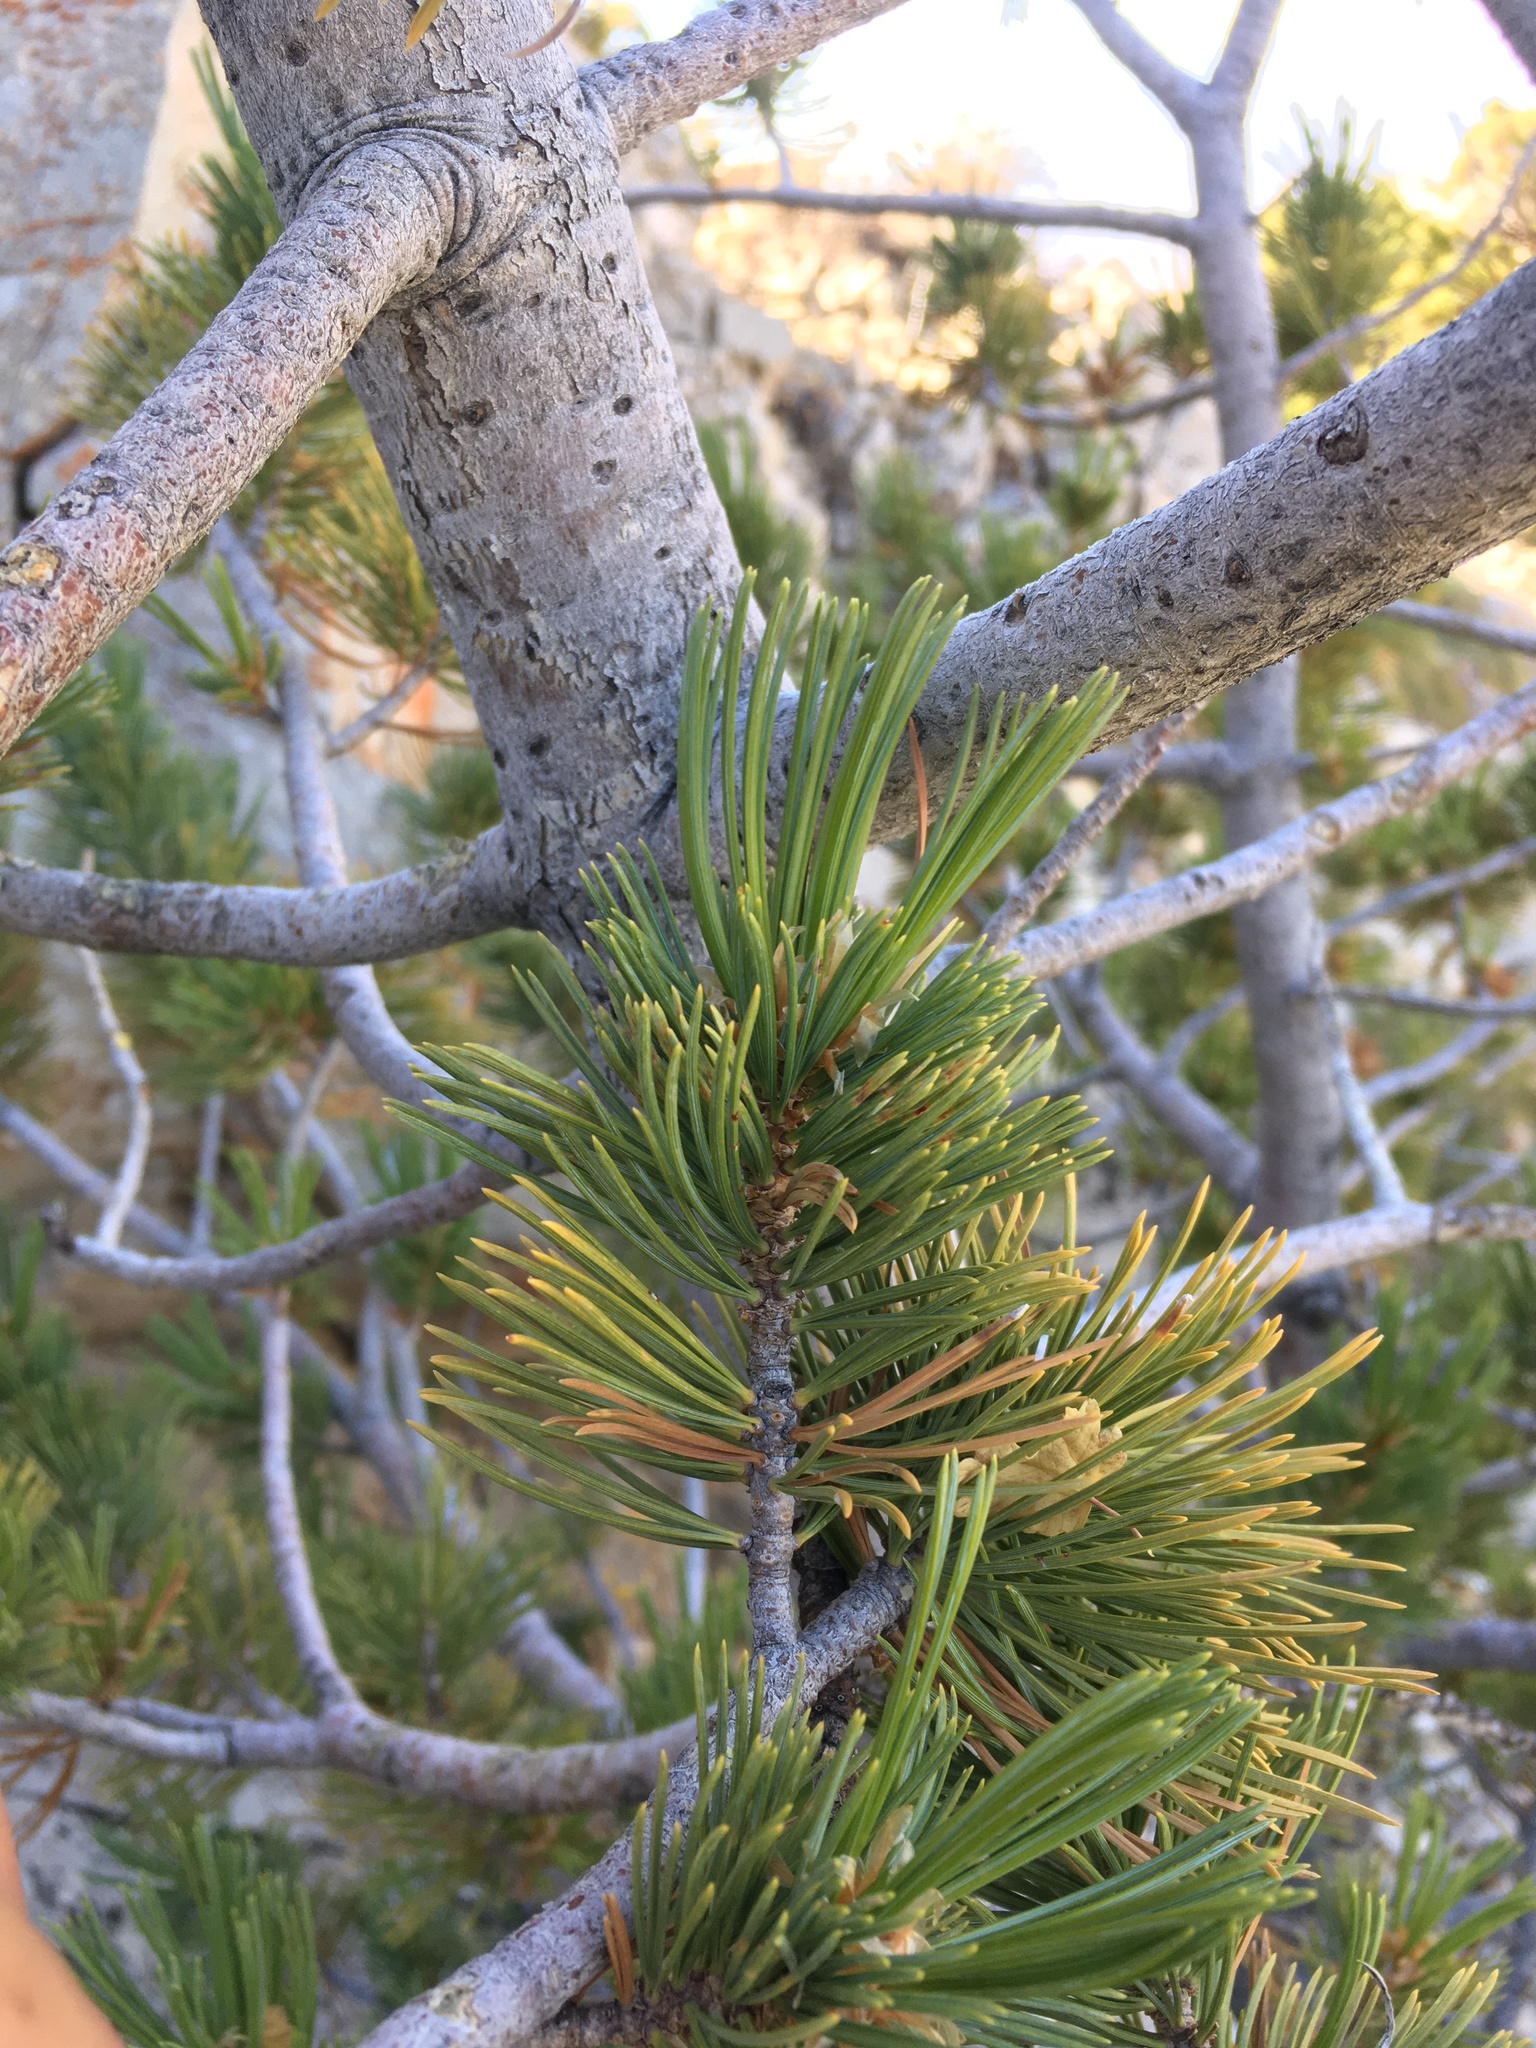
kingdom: Plantae
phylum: Tracheophyta
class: Pinopsida
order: Pinales
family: Pinaceae
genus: Pinus
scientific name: Pinus flexilis
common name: Limber pine
